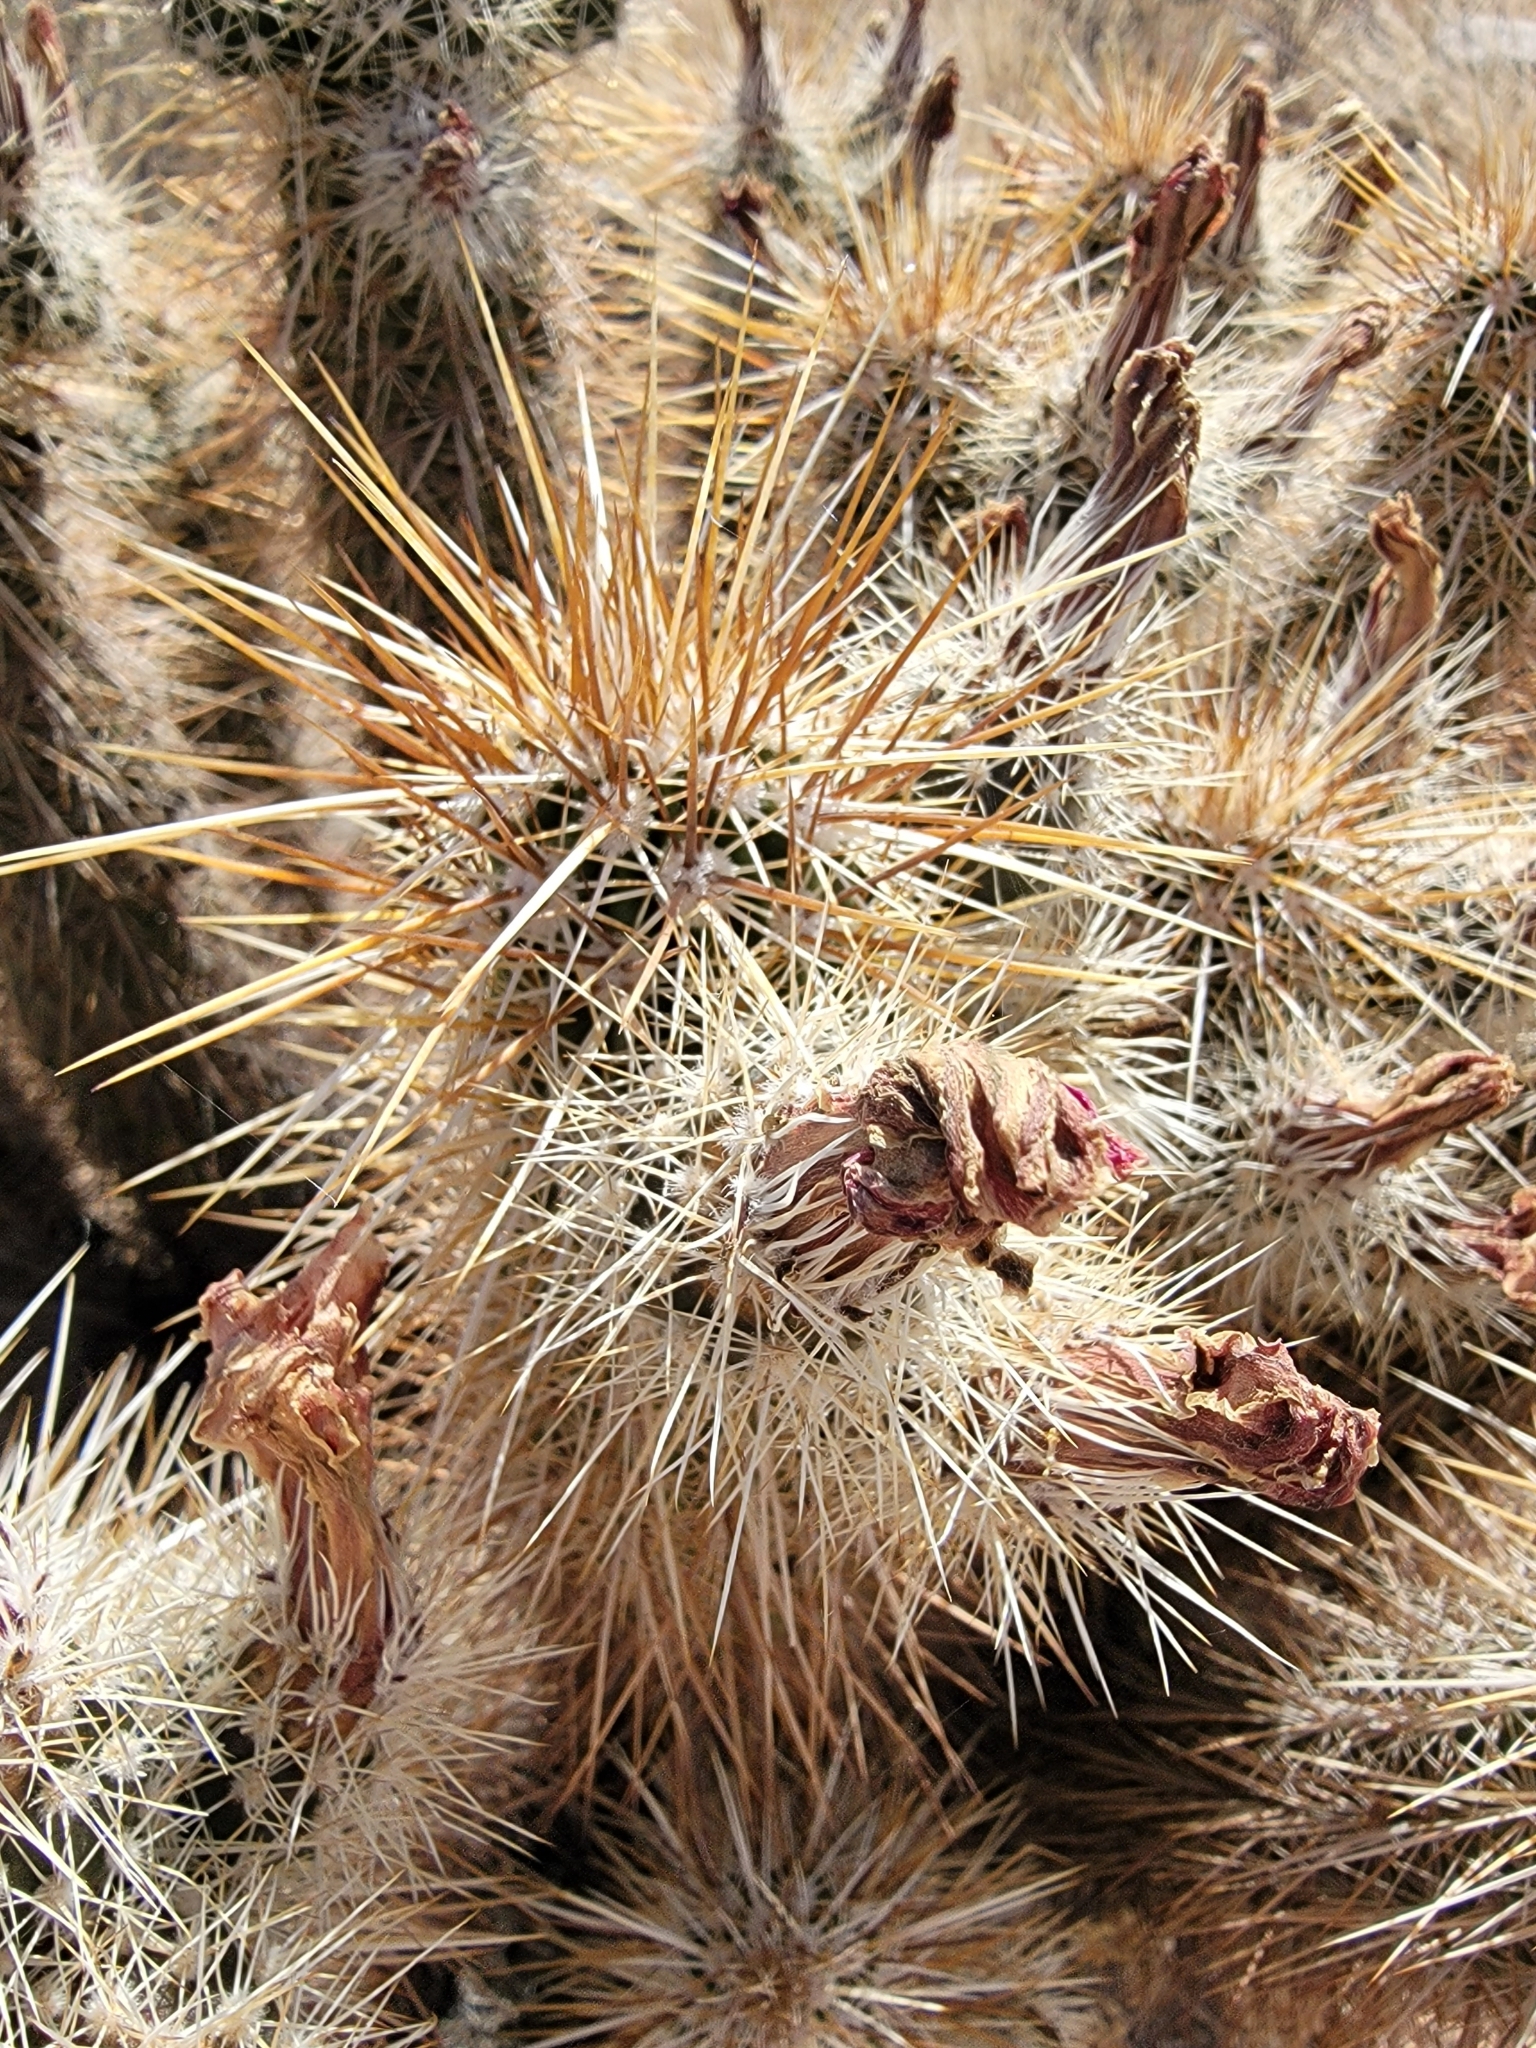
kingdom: Plantae
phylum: Tracheophyta
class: Magnoliopsida
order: Caryophyllales
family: Cactaceae
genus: Echinocereus
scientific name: Echinocereus engelmannii
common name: Engelmann's hedgehog cactus
